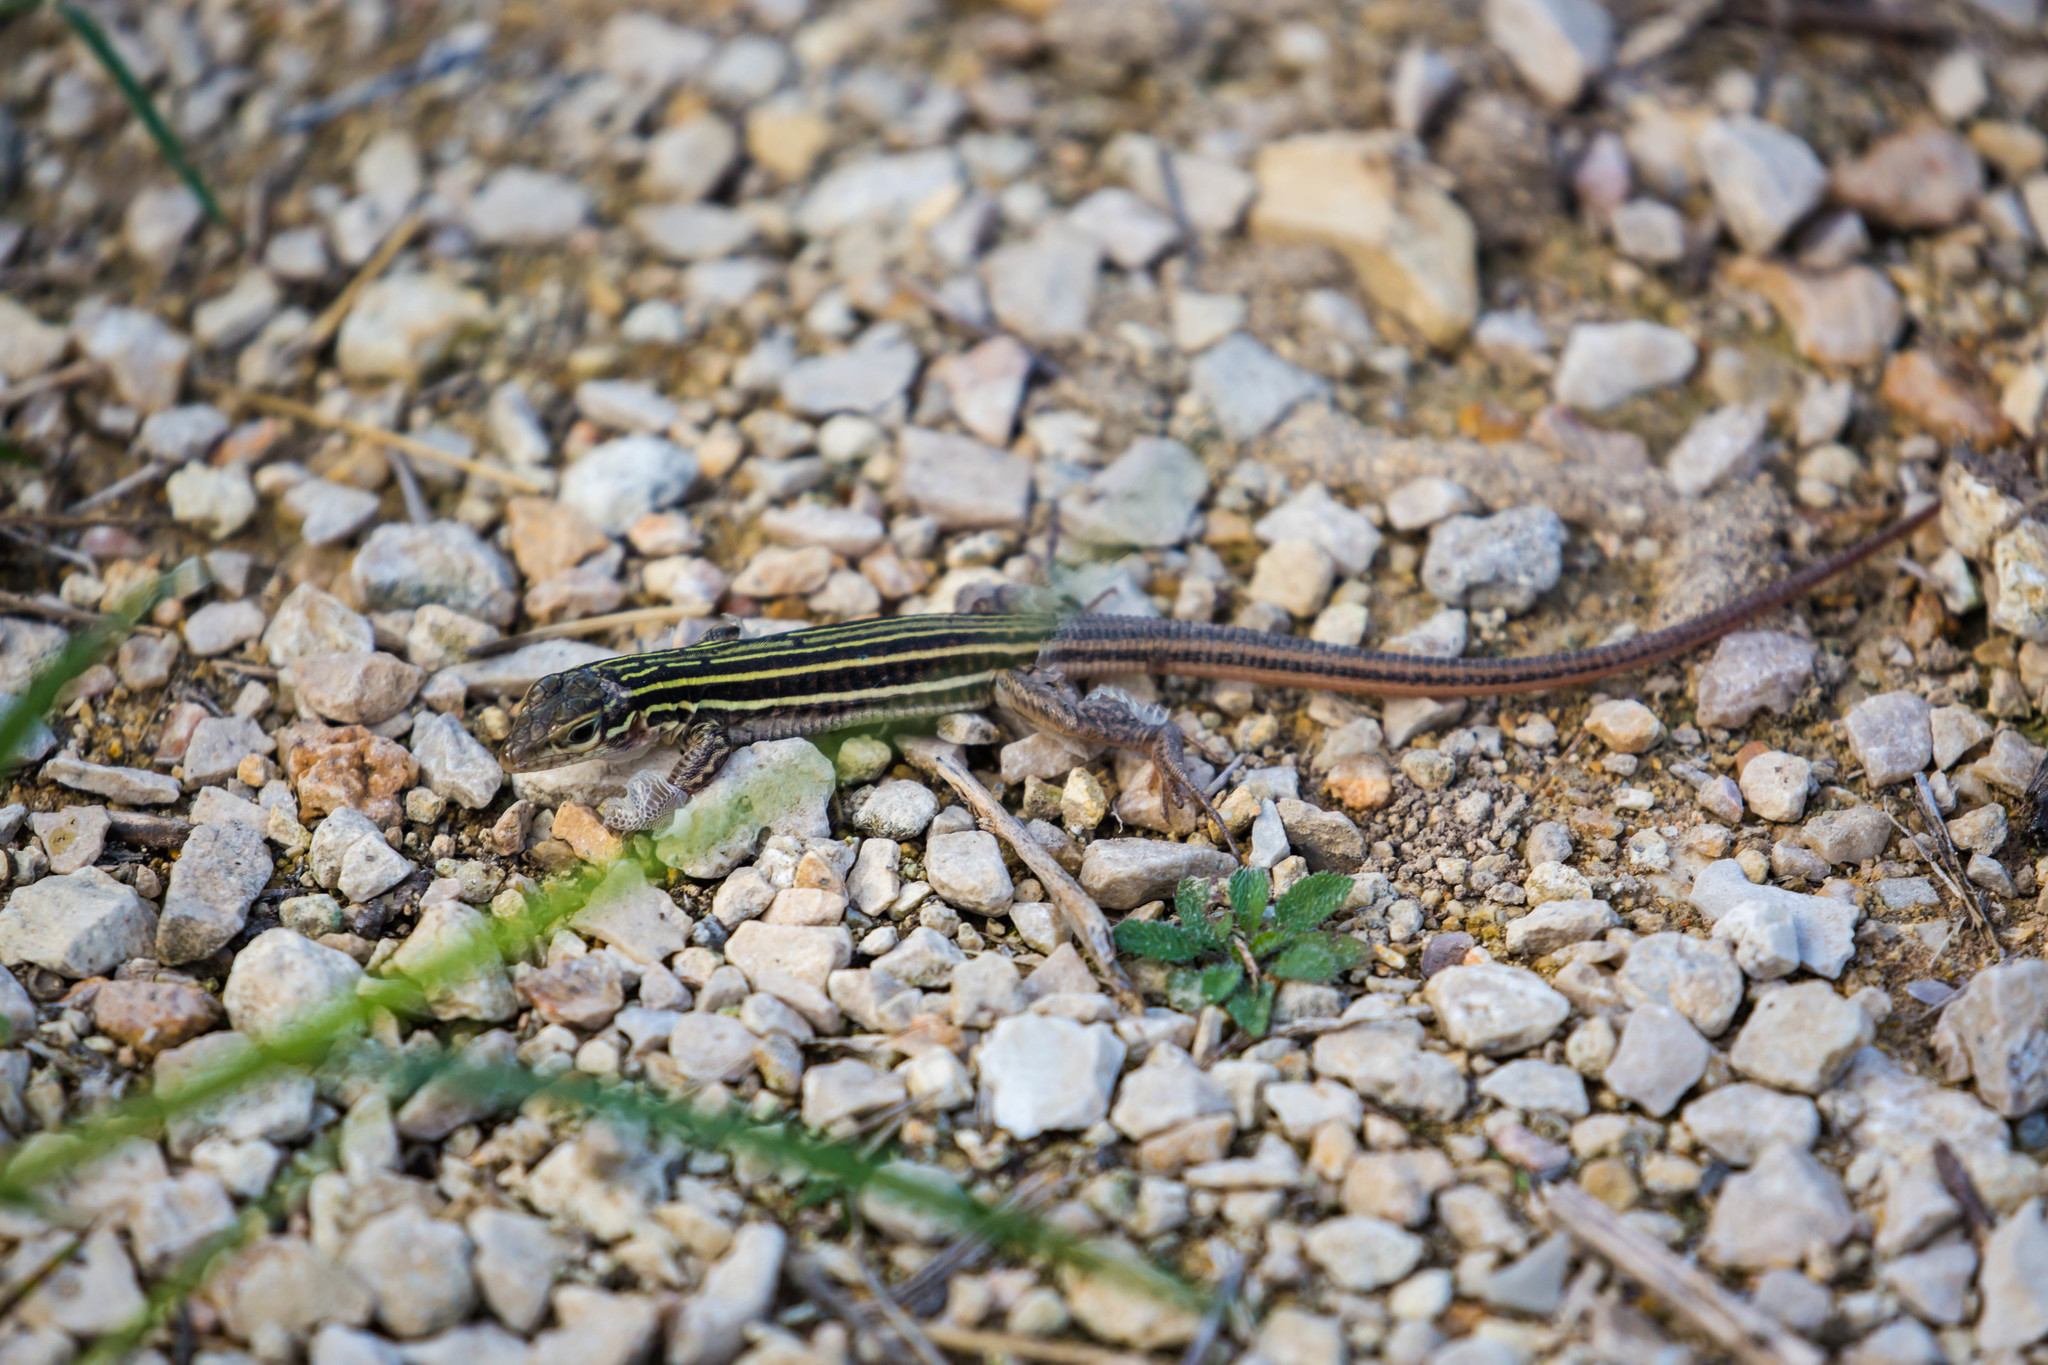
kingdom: Animalia
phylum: Chordata
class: Squamata
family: Teiidae
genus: Aspidoscelis
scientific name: Aspidoscelis gularis
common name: Eastern spotted whiptail
